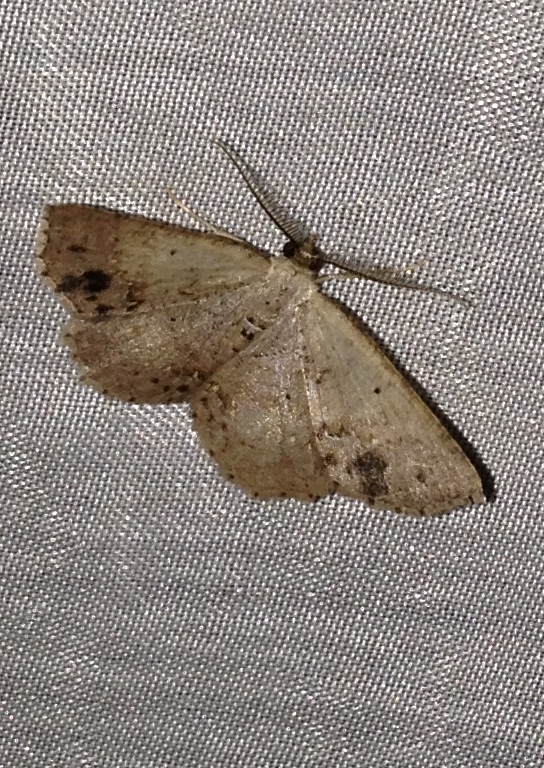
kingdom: Animalia
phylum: Arthropoda
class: Insecta
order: Lepidoptera
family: Geometridae
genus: Isochromodes
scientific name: Isochromodes brumosa
